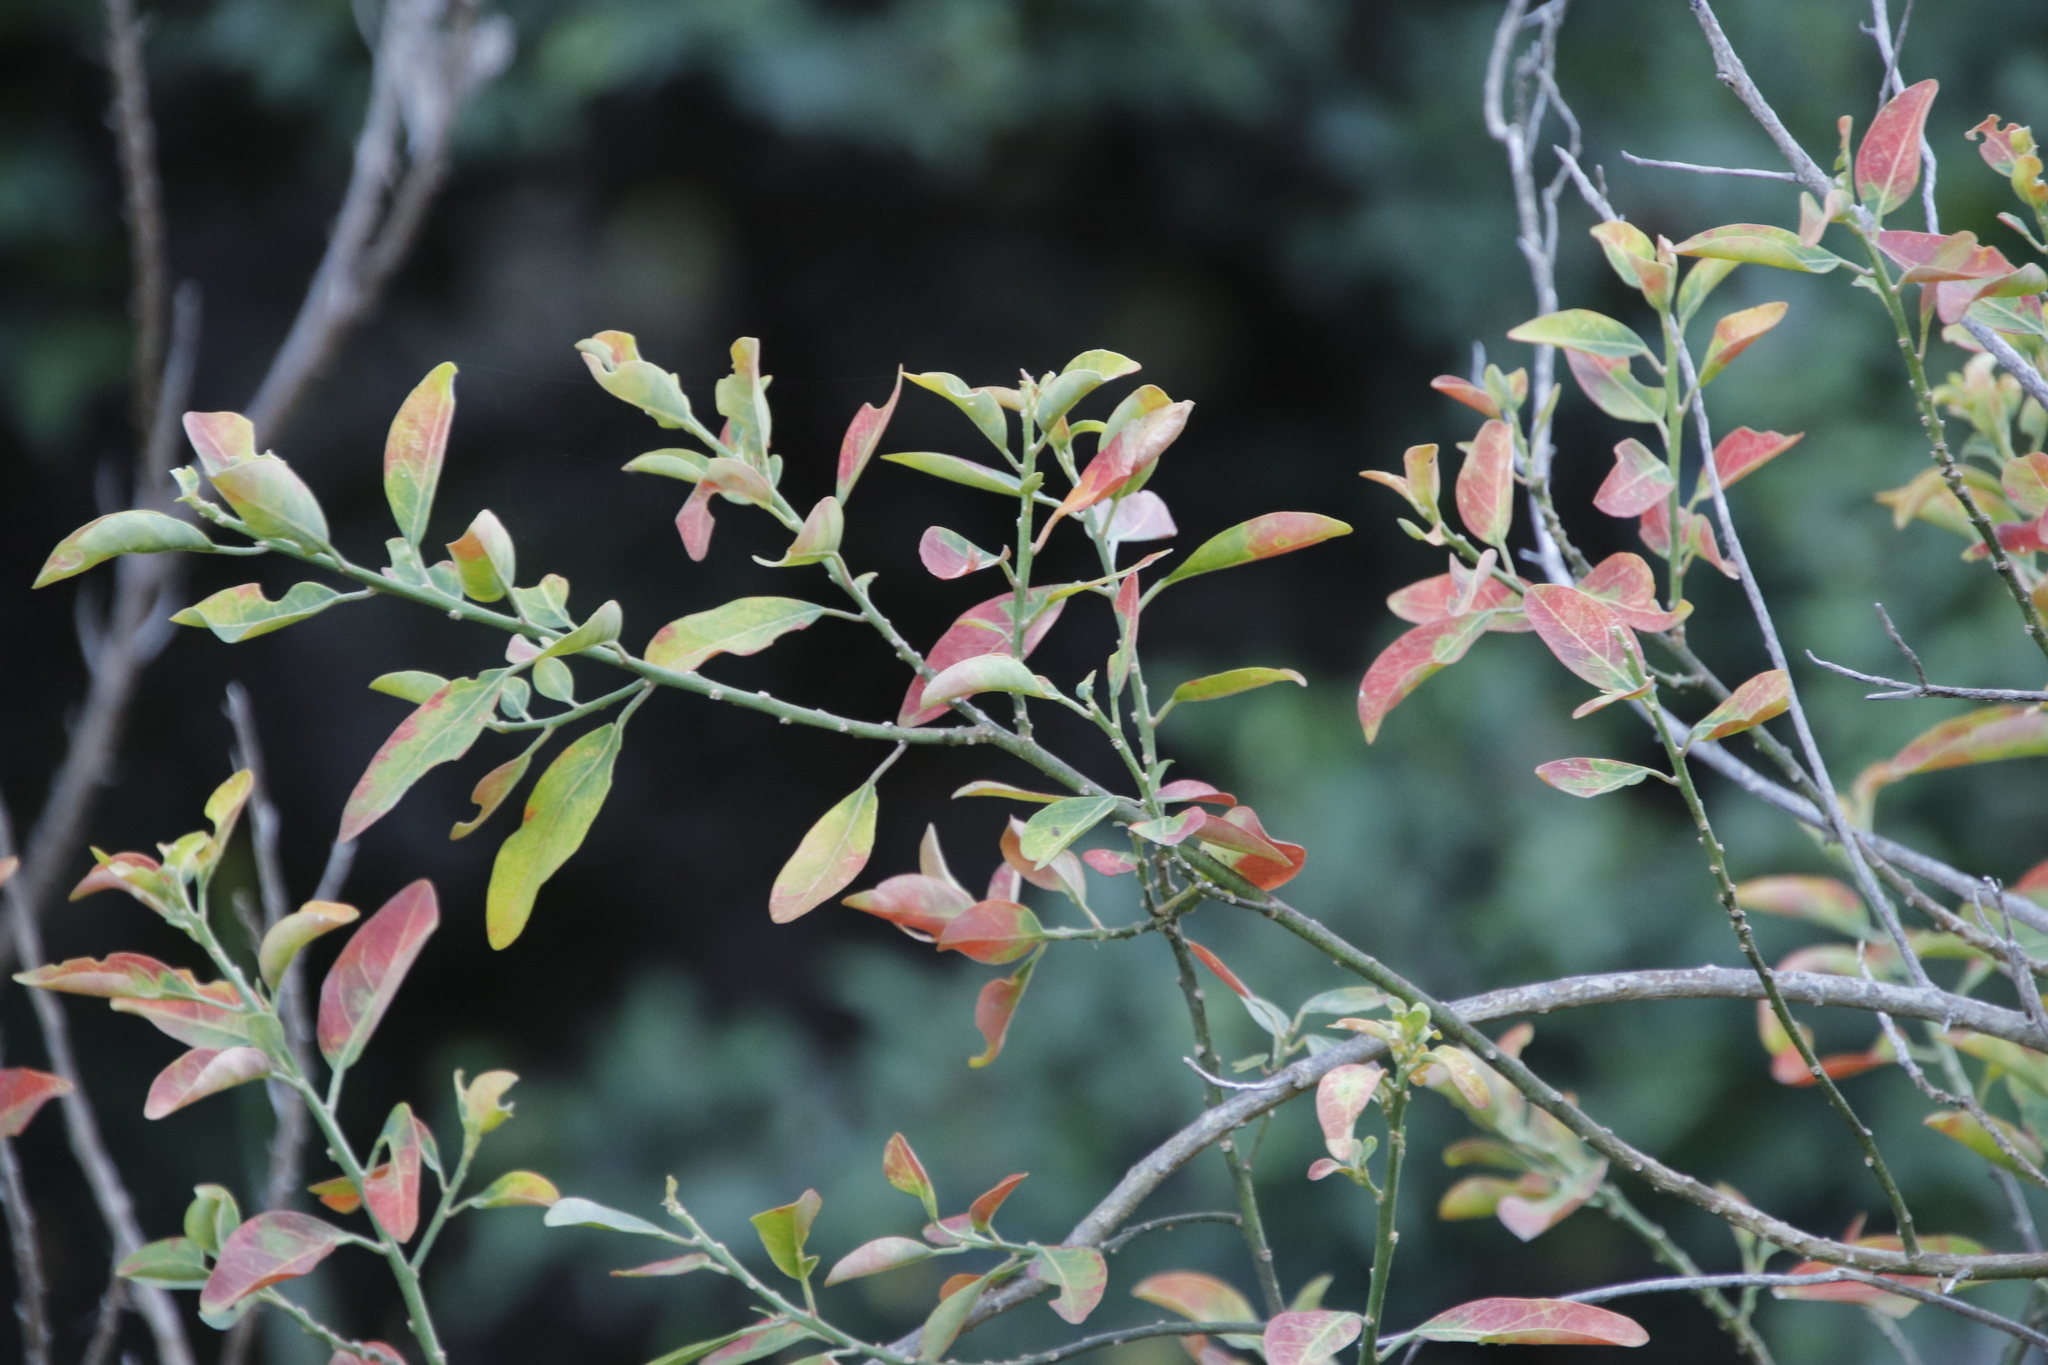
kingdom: Plantae
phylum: Tracheophyta
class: Magnoliopsida
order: Malpighiales
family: Peraceae
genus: Clutia
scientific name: Clutia pulchella
